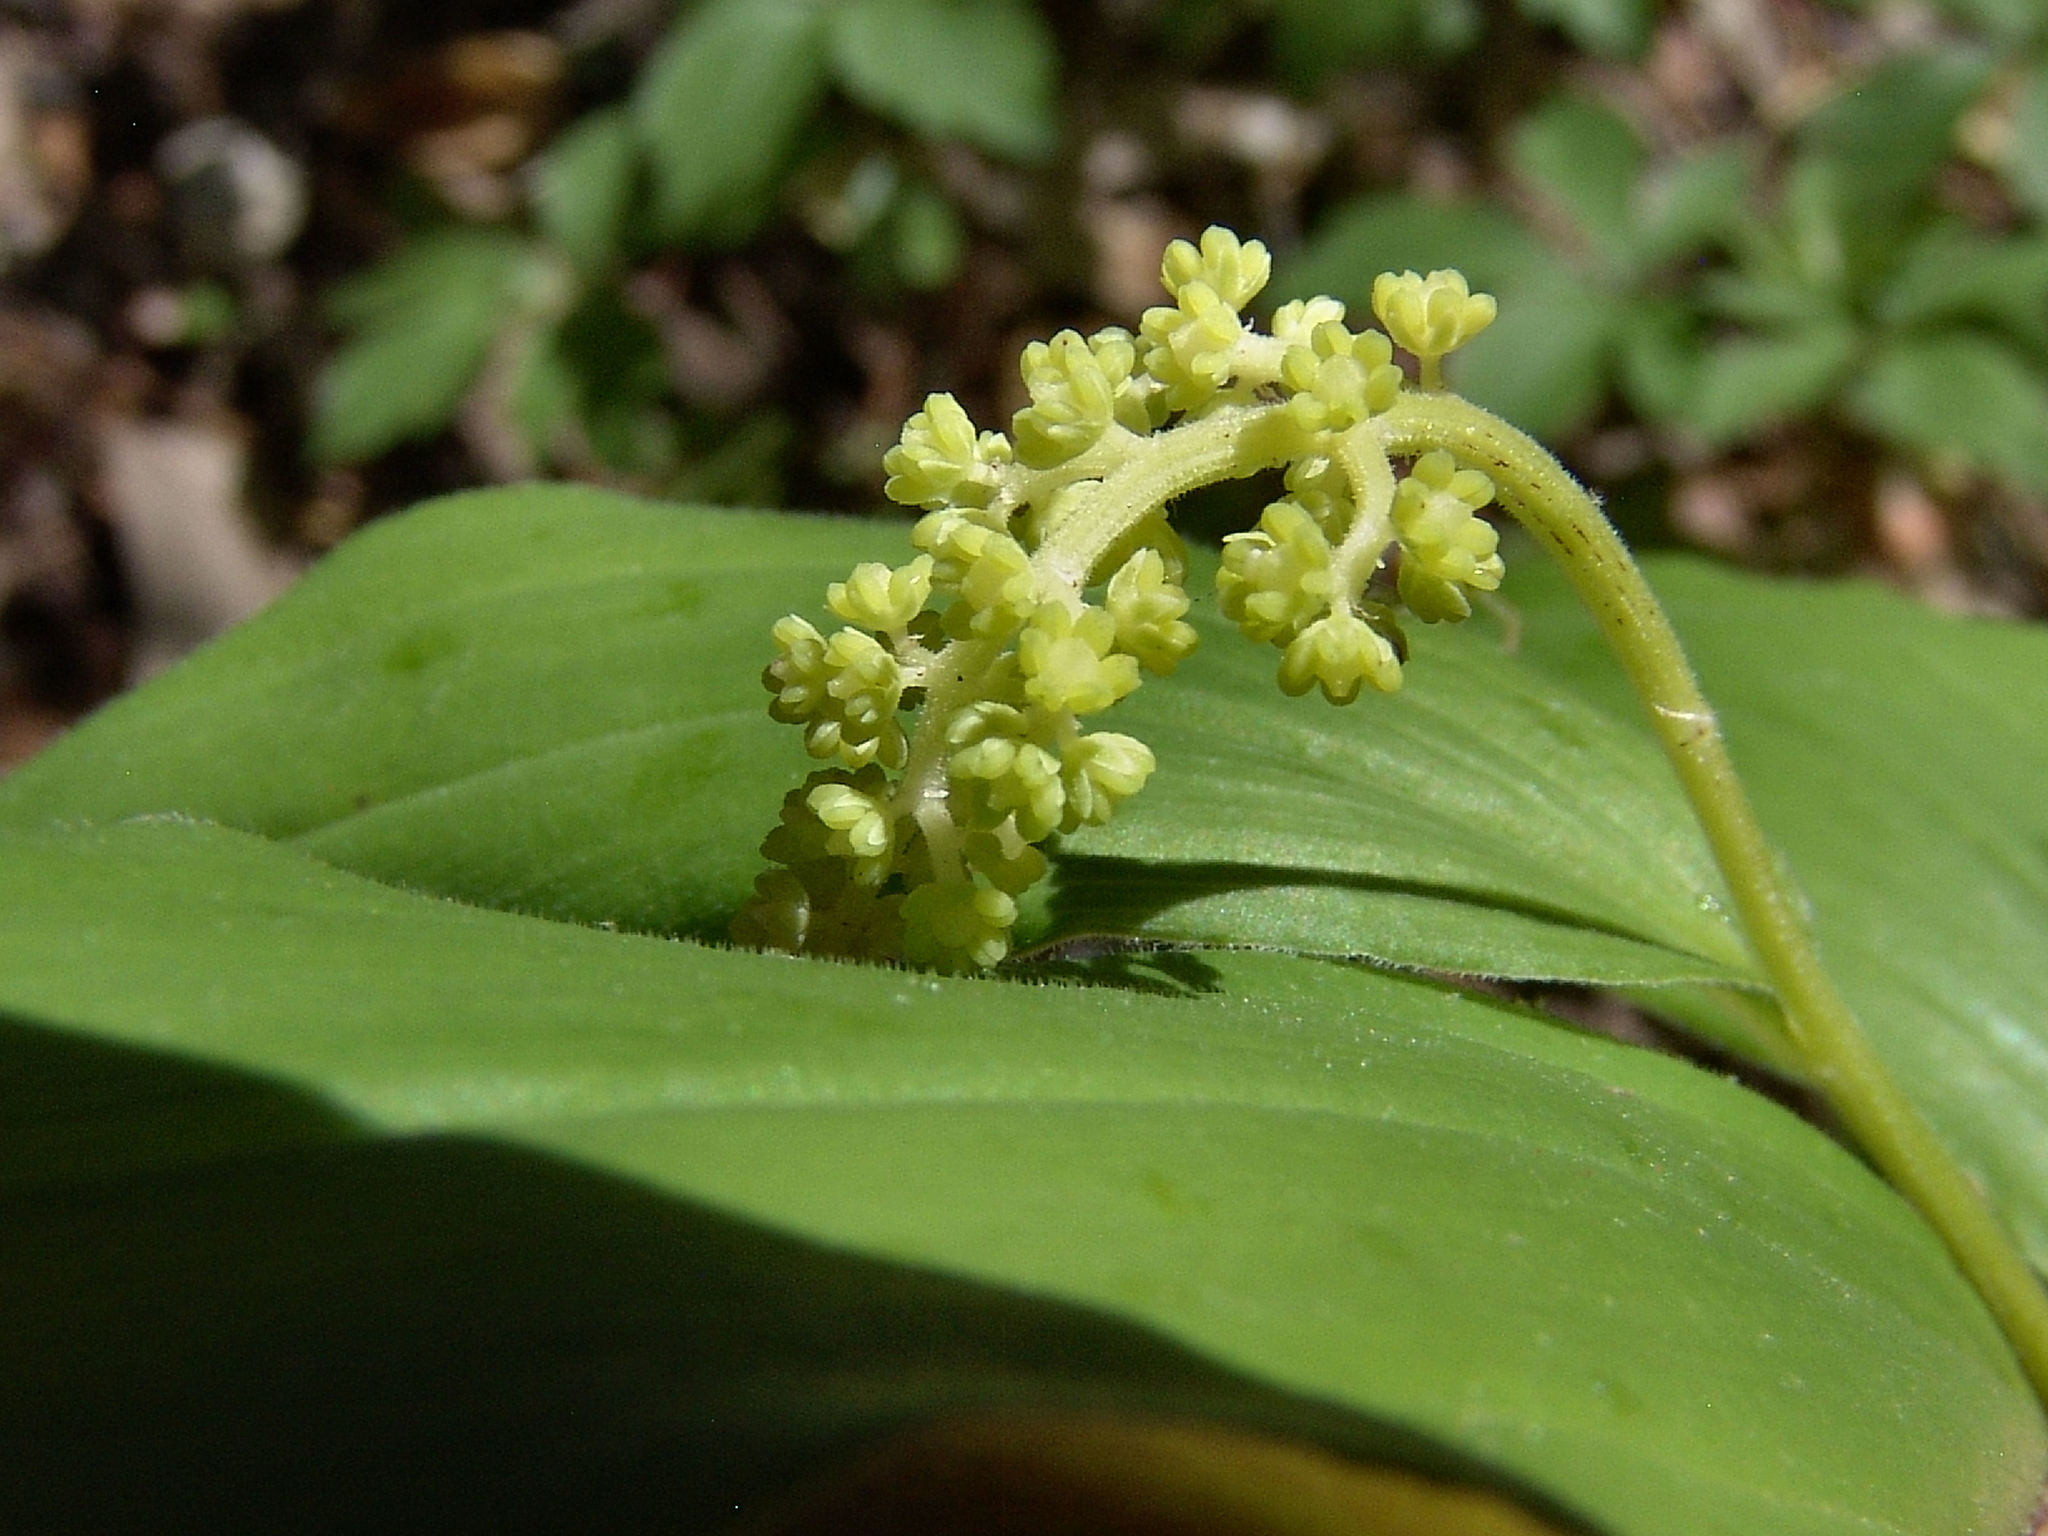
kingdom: Plantae
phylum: Tracheophyta
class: Liliopsida
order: Asparagales
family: Asparagaceae
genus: Maianthemum
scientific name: Maianthemum racemosum
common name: False spikenard
